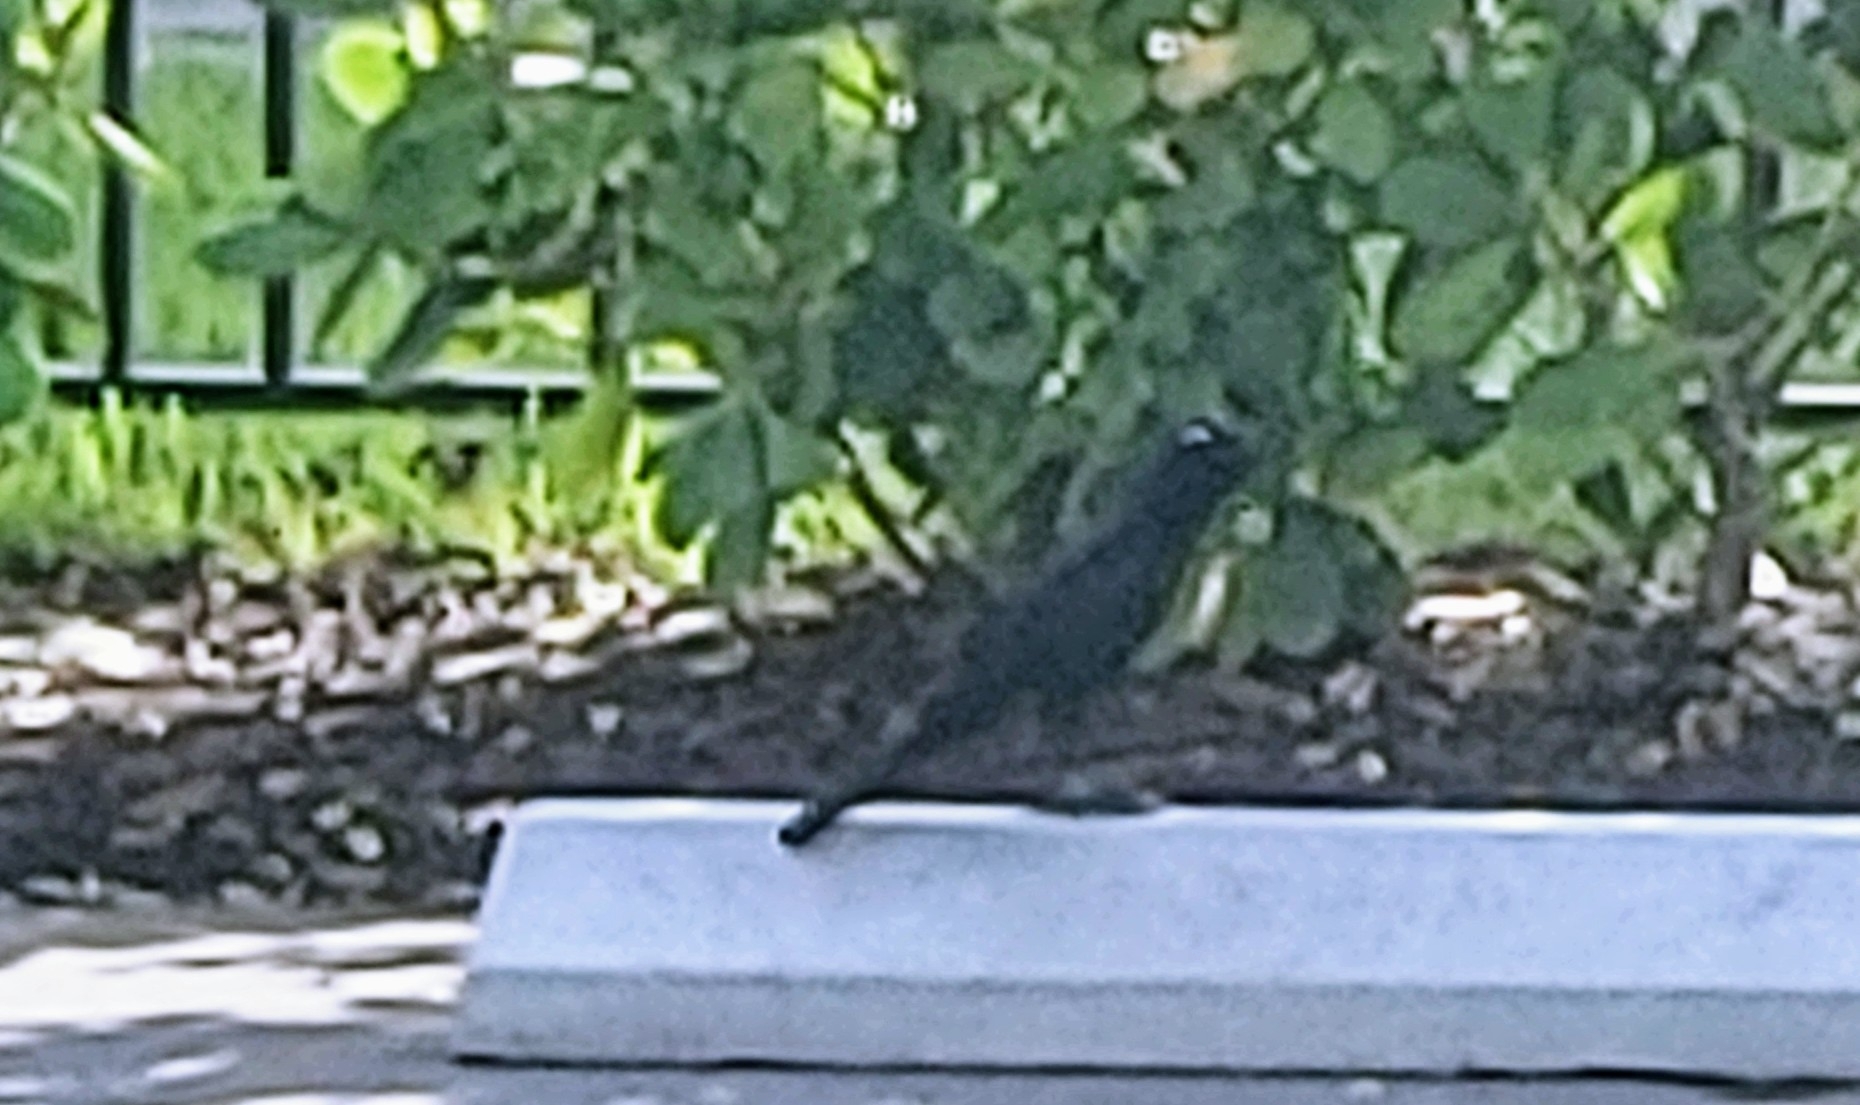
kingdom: Animalia
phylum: Chordata
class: Aves
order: Passeriformes
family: Icteridae
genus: Quiscalus
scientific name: Quiscalus major
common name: Boat-tailed grackle
